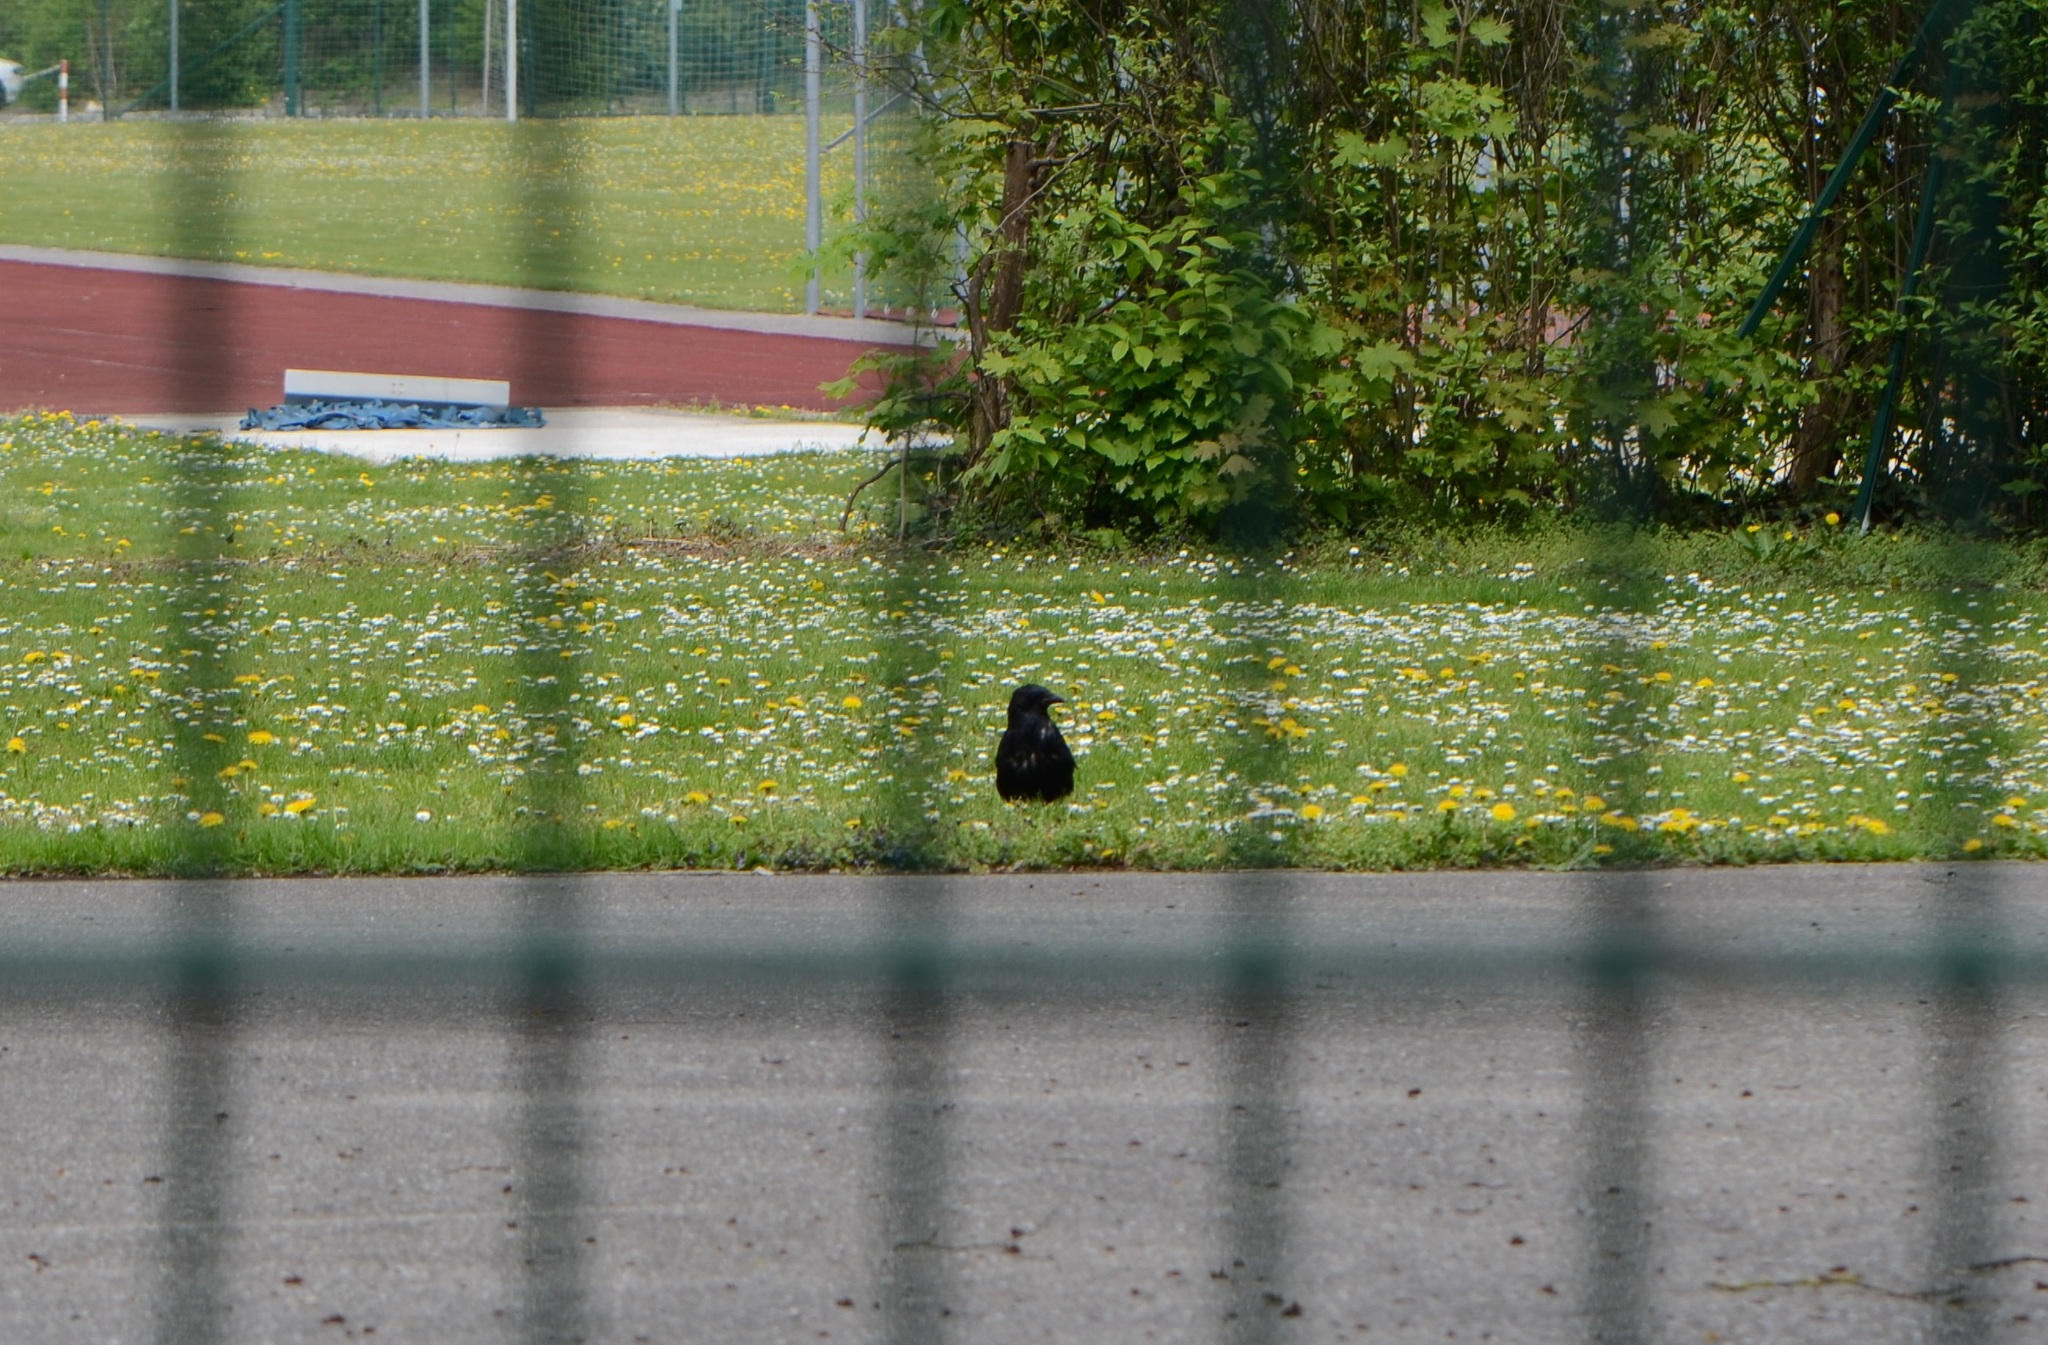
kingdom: Animalia
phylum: Chordata
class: Aves
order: Passeriformes
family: Corvidae
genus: Corvus
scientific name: Corvus corone
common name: Carrion crow
